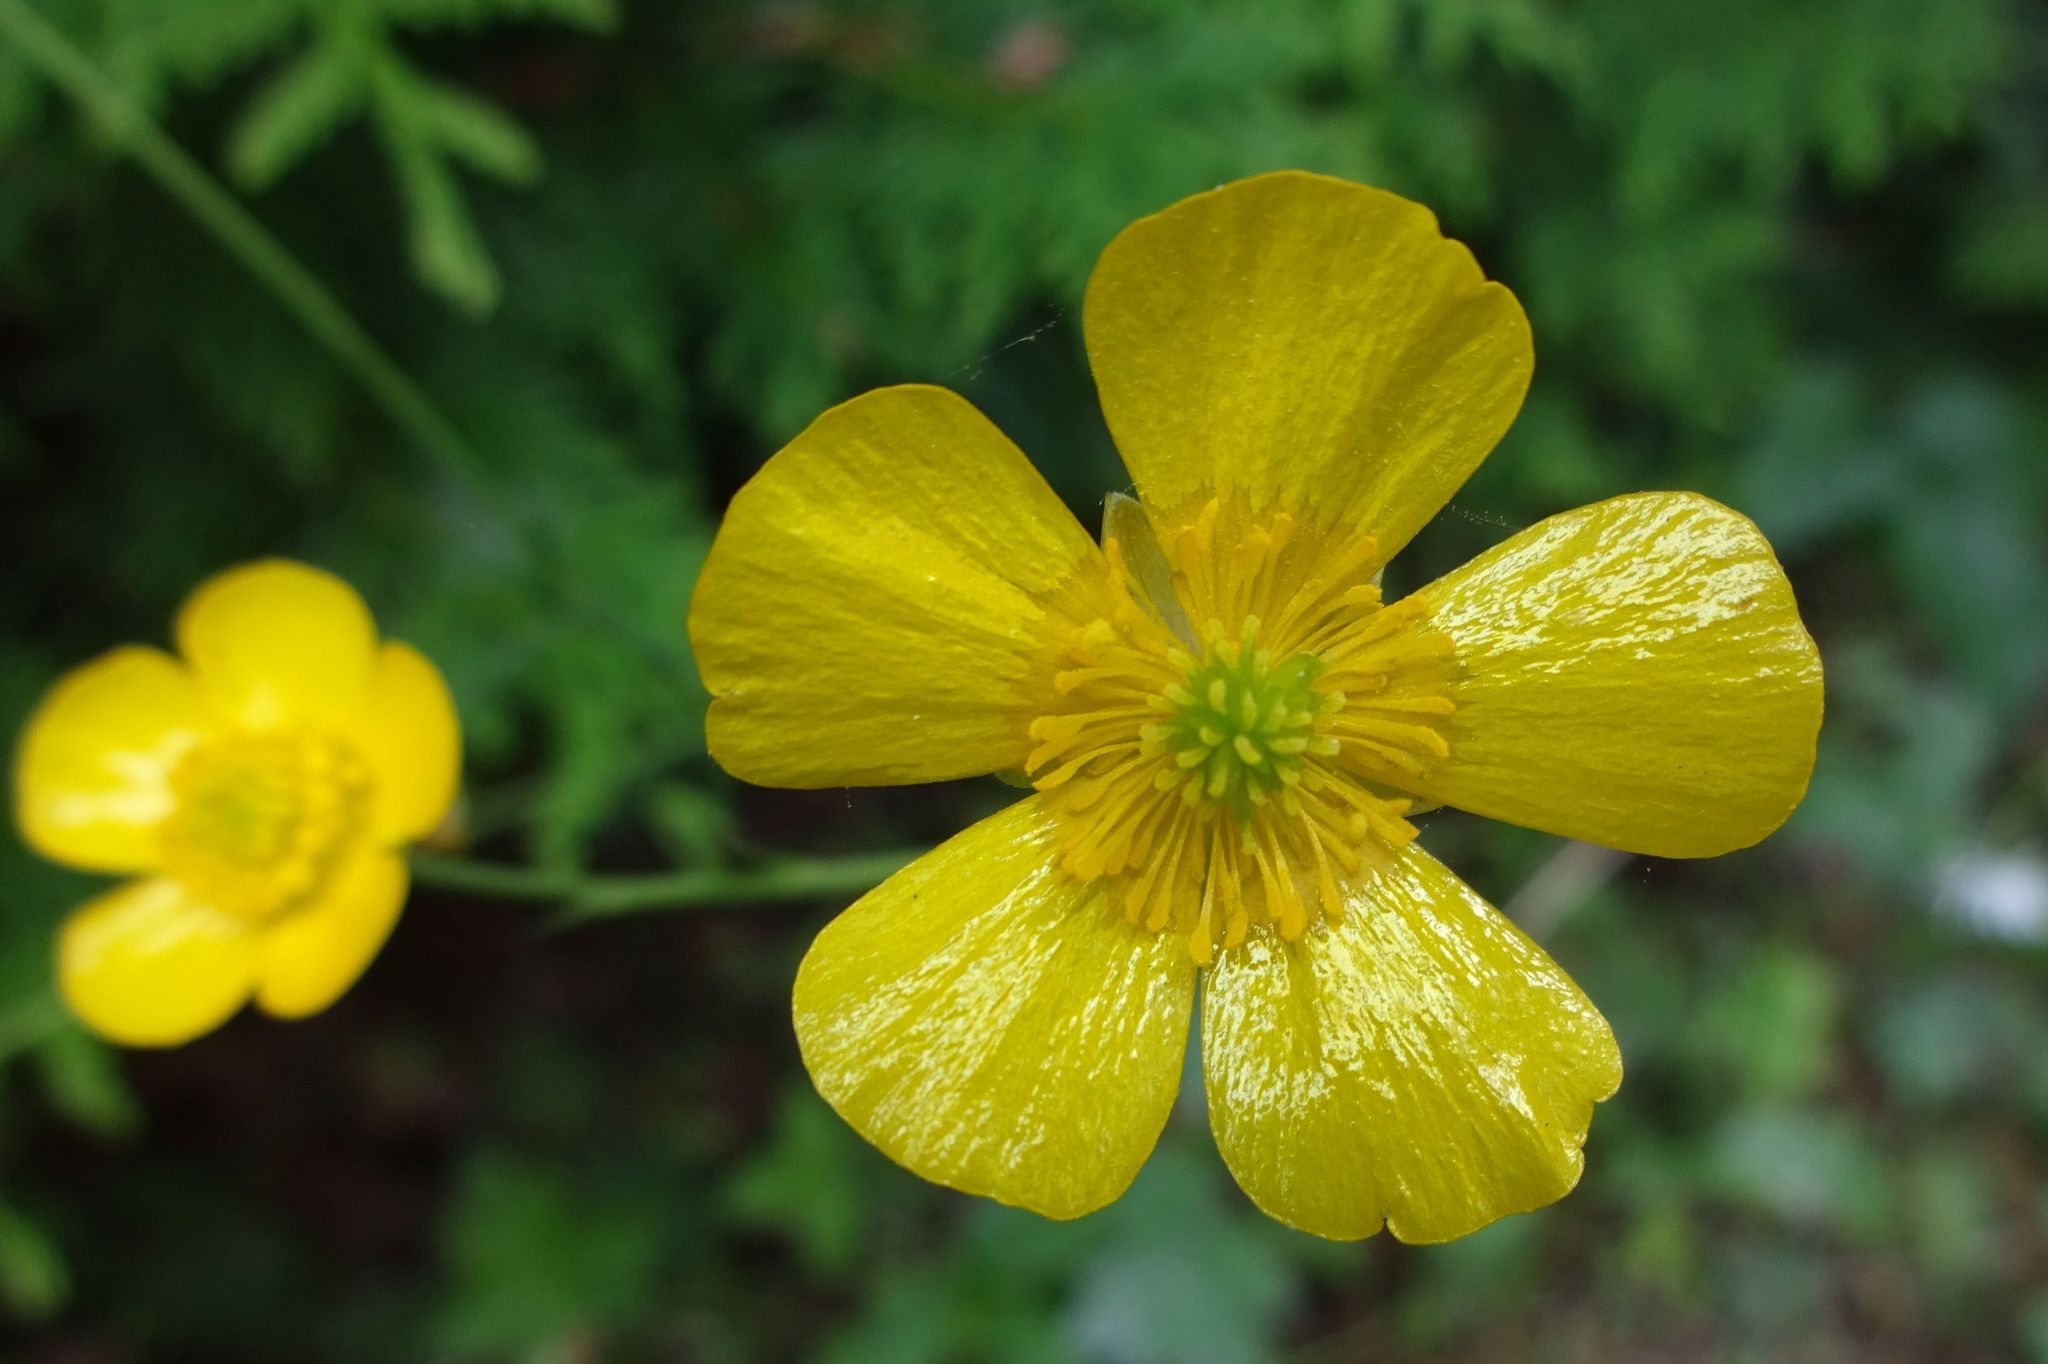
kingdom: Plantae
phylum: Tracheophyta
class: Magnoliopsida
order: Ranunculales
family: Ranunculaceae
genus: Ranunculus
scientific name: Ranunculus acris
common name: Meadow buttercup
